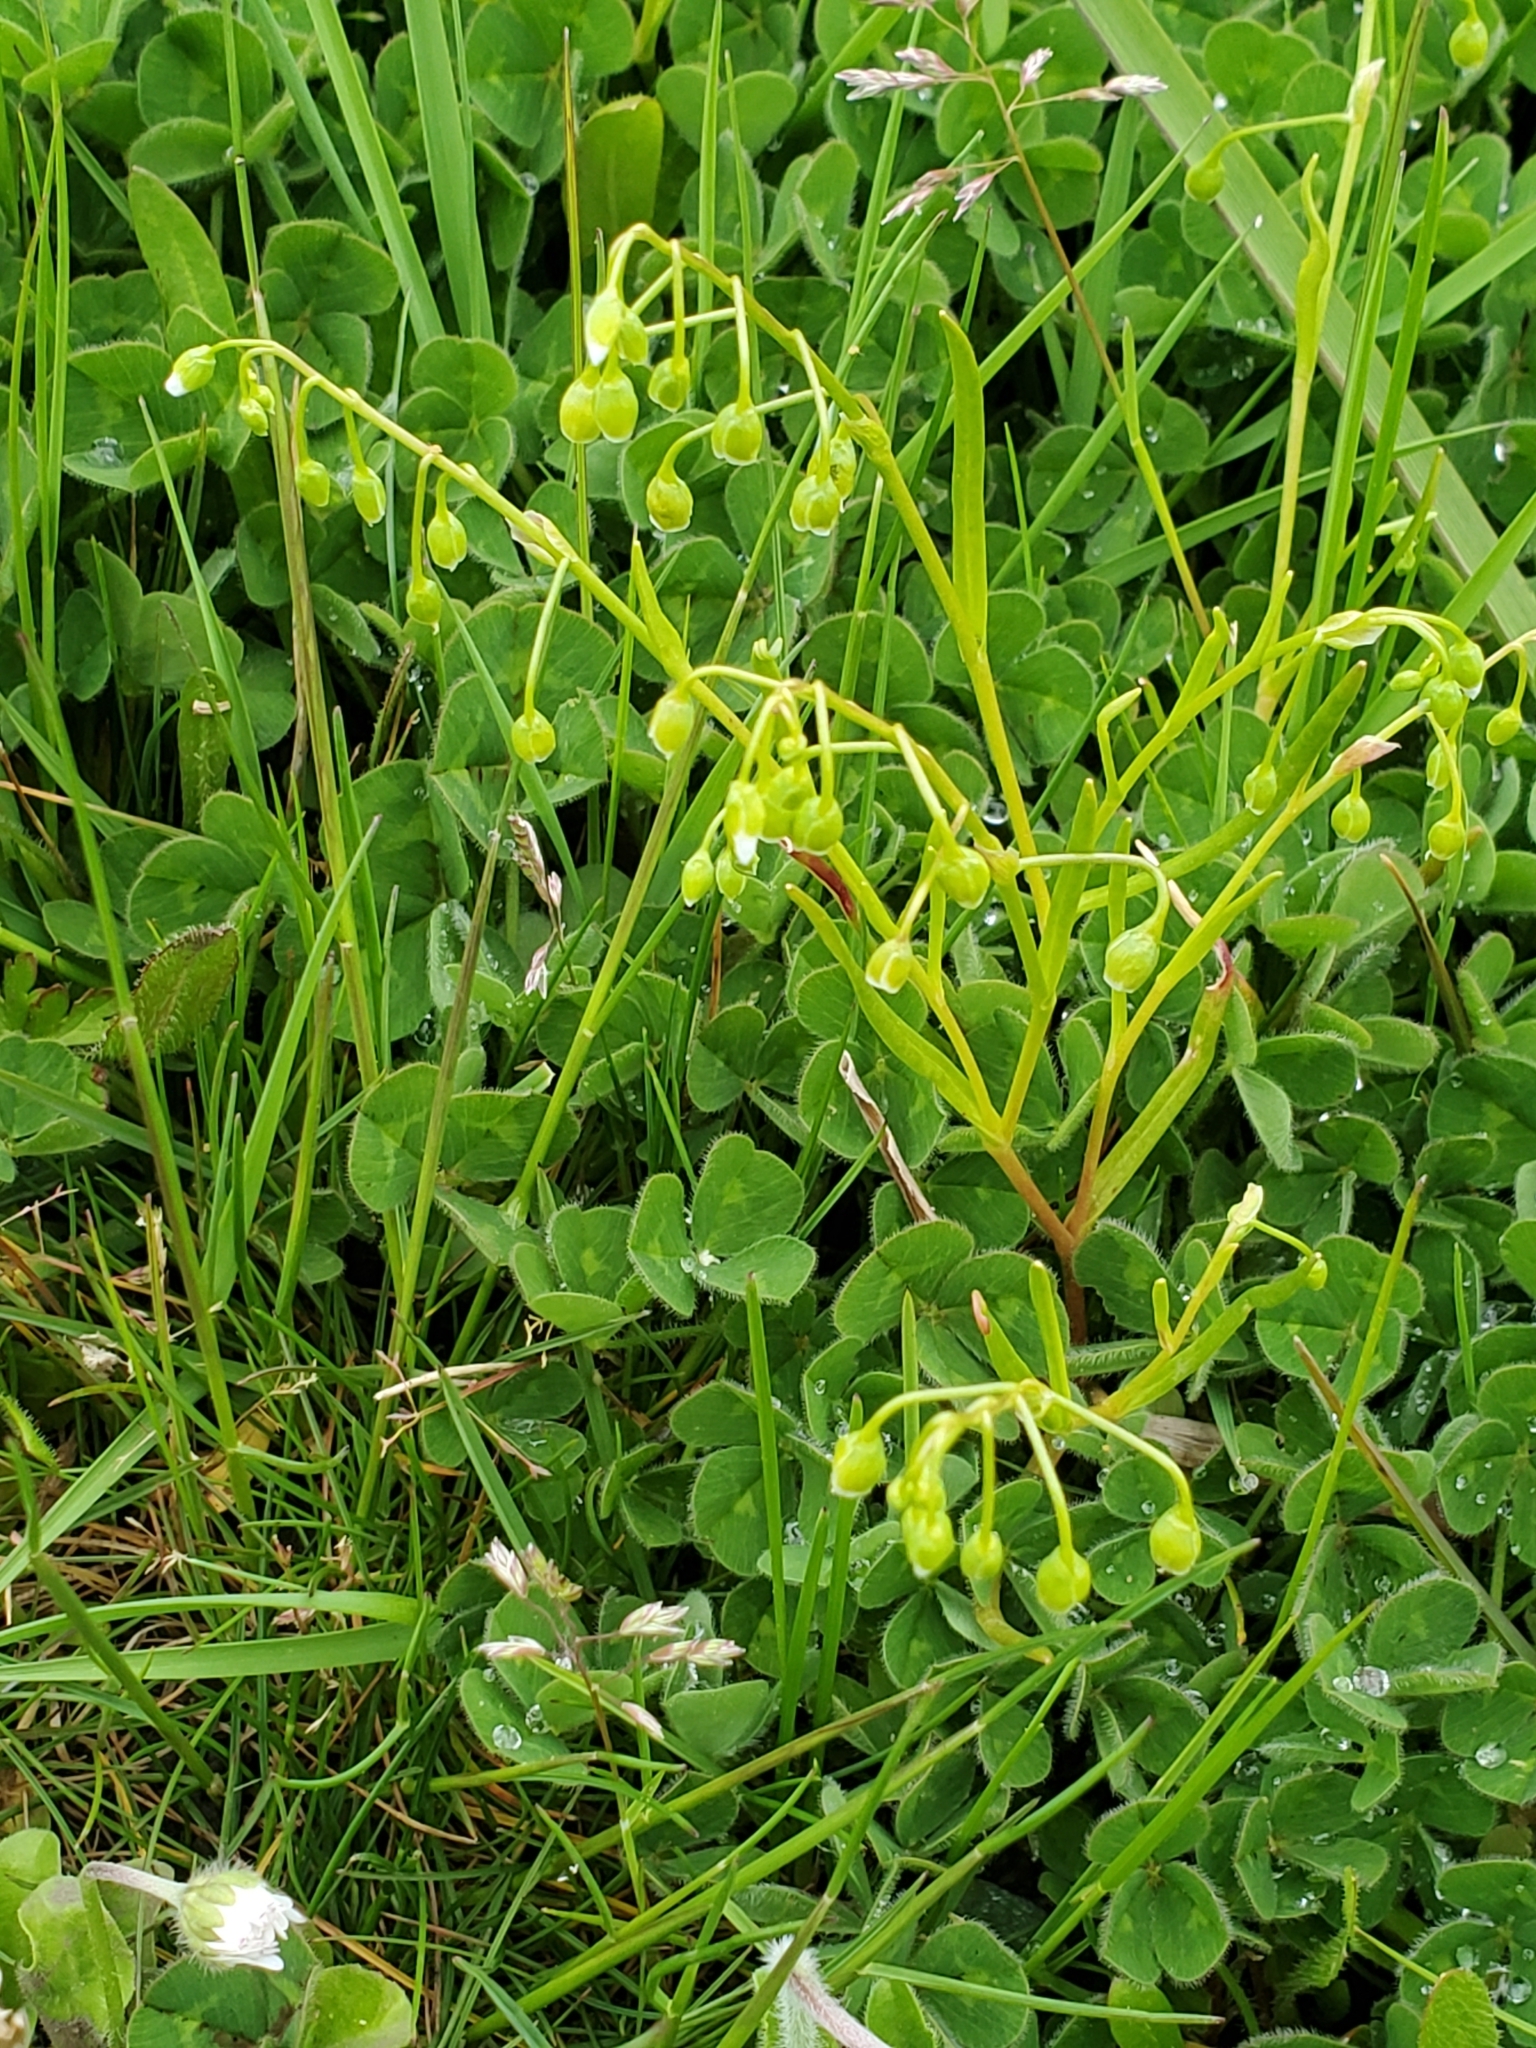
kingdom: Plantae
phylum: Tracheophyta
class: Magnoliopsida
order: Caryophyllales
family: Montiaceae
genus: Montia
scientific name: Montia linearis
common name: Narrow-leaf montia
